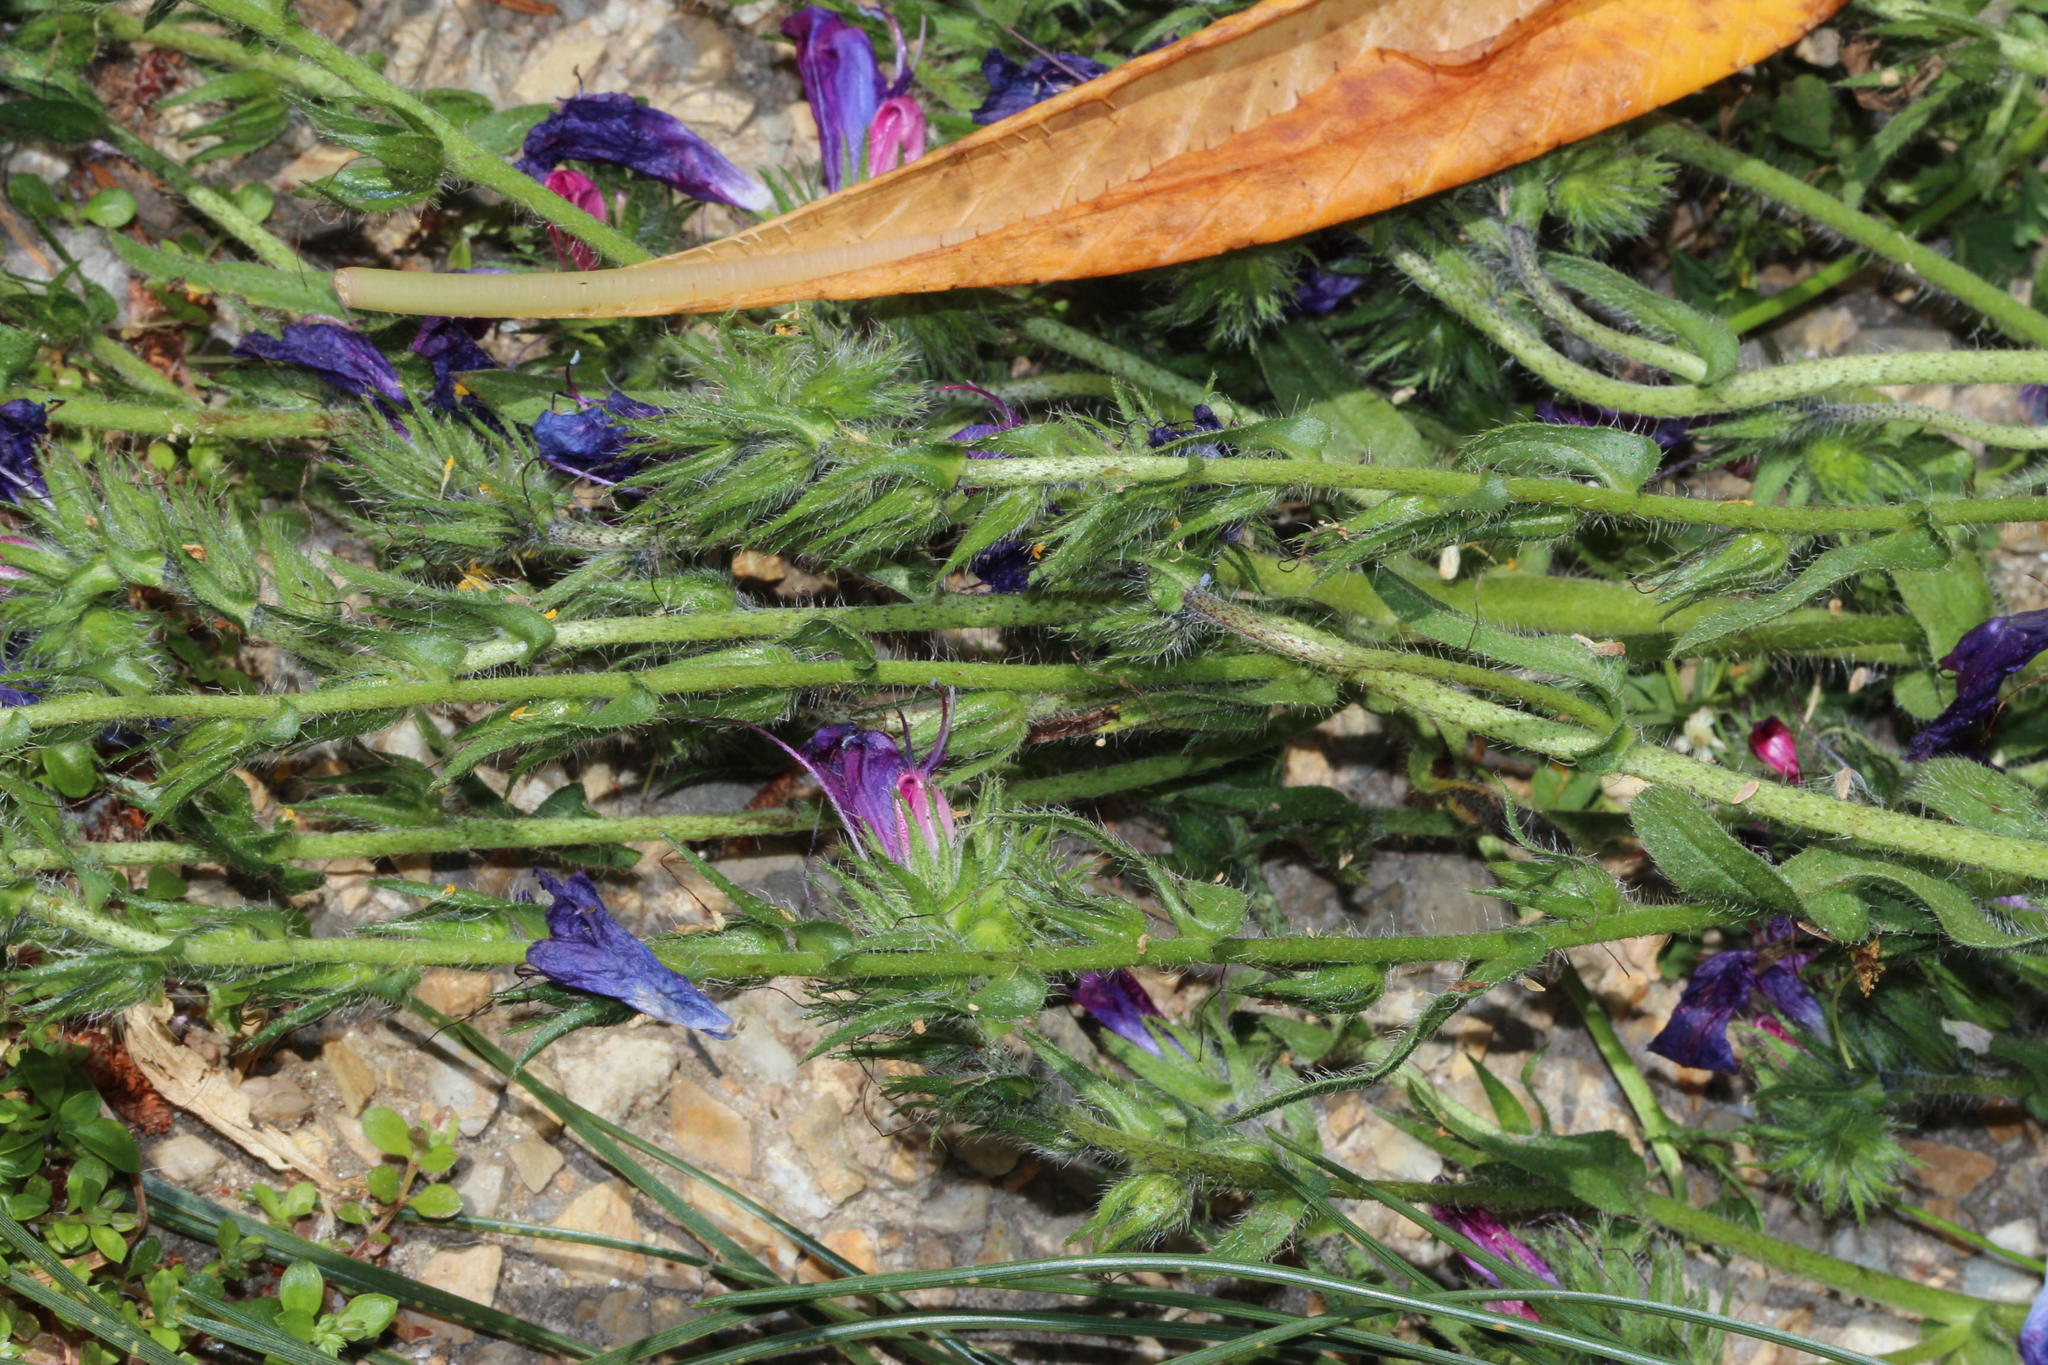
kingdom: Plantae
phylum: Tracheophyta
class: Magnoliopsida
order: Boraginales
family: Boraginaceae
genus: Echium
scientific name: Echium plantagineum
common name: Purple viper's-bugloss
